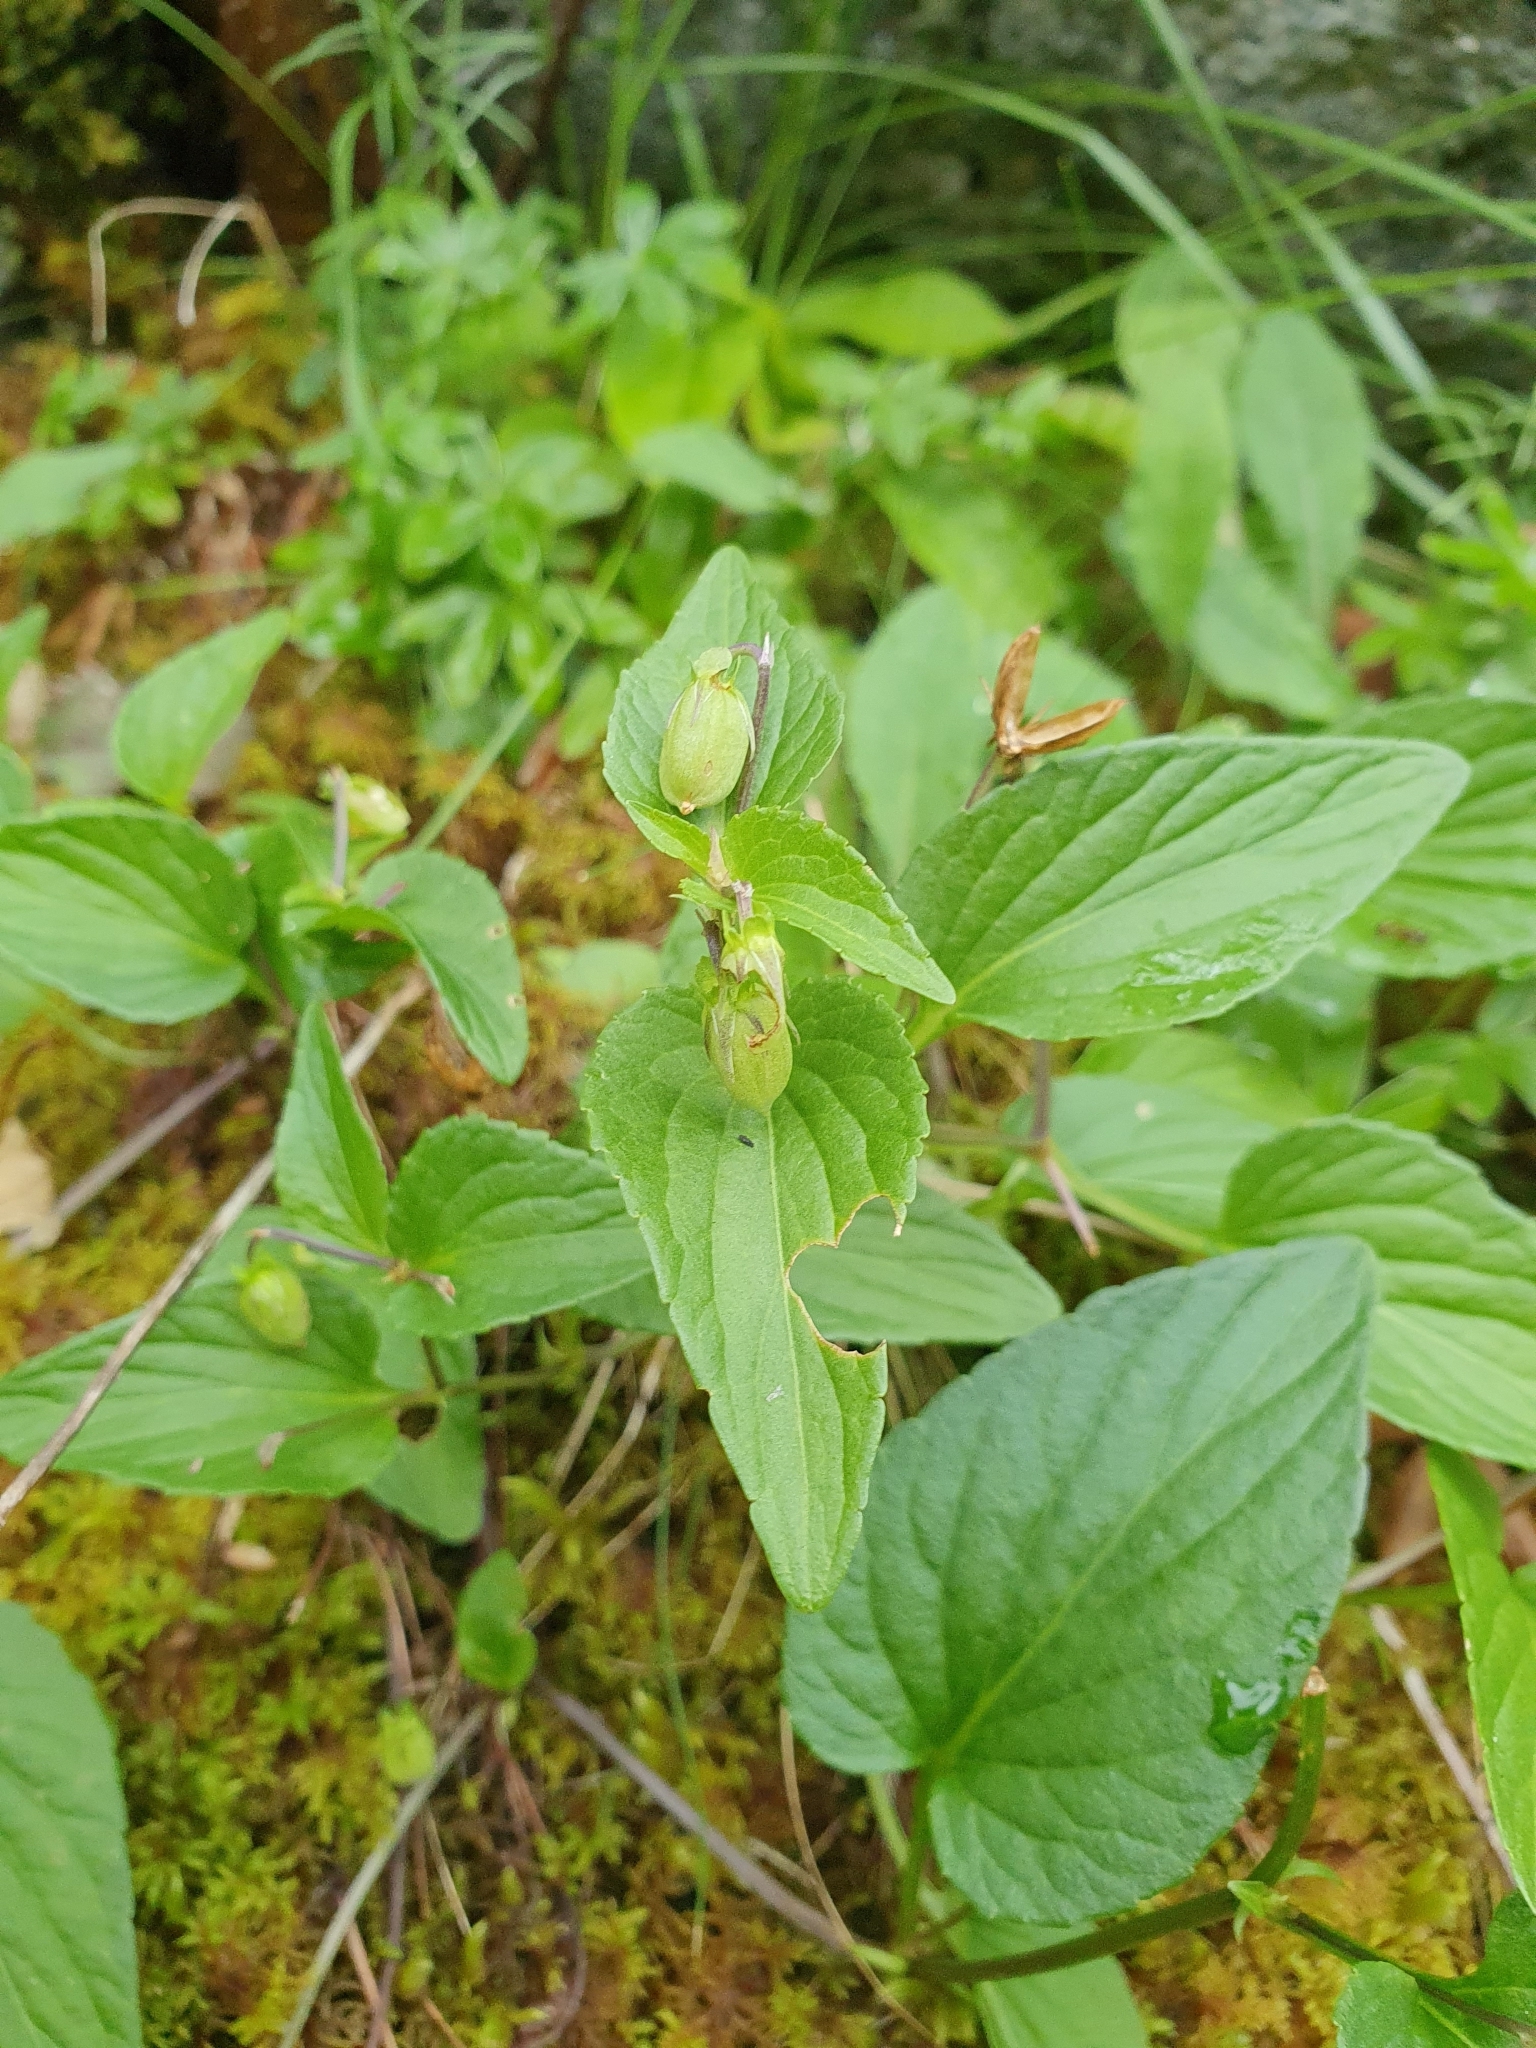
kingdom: Plantae
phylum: Tracheophyta
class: Magnoliopsida
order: Malpighiales
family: Violaceae
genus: Viola
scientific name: Viola canina
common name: Heath dog-violet
